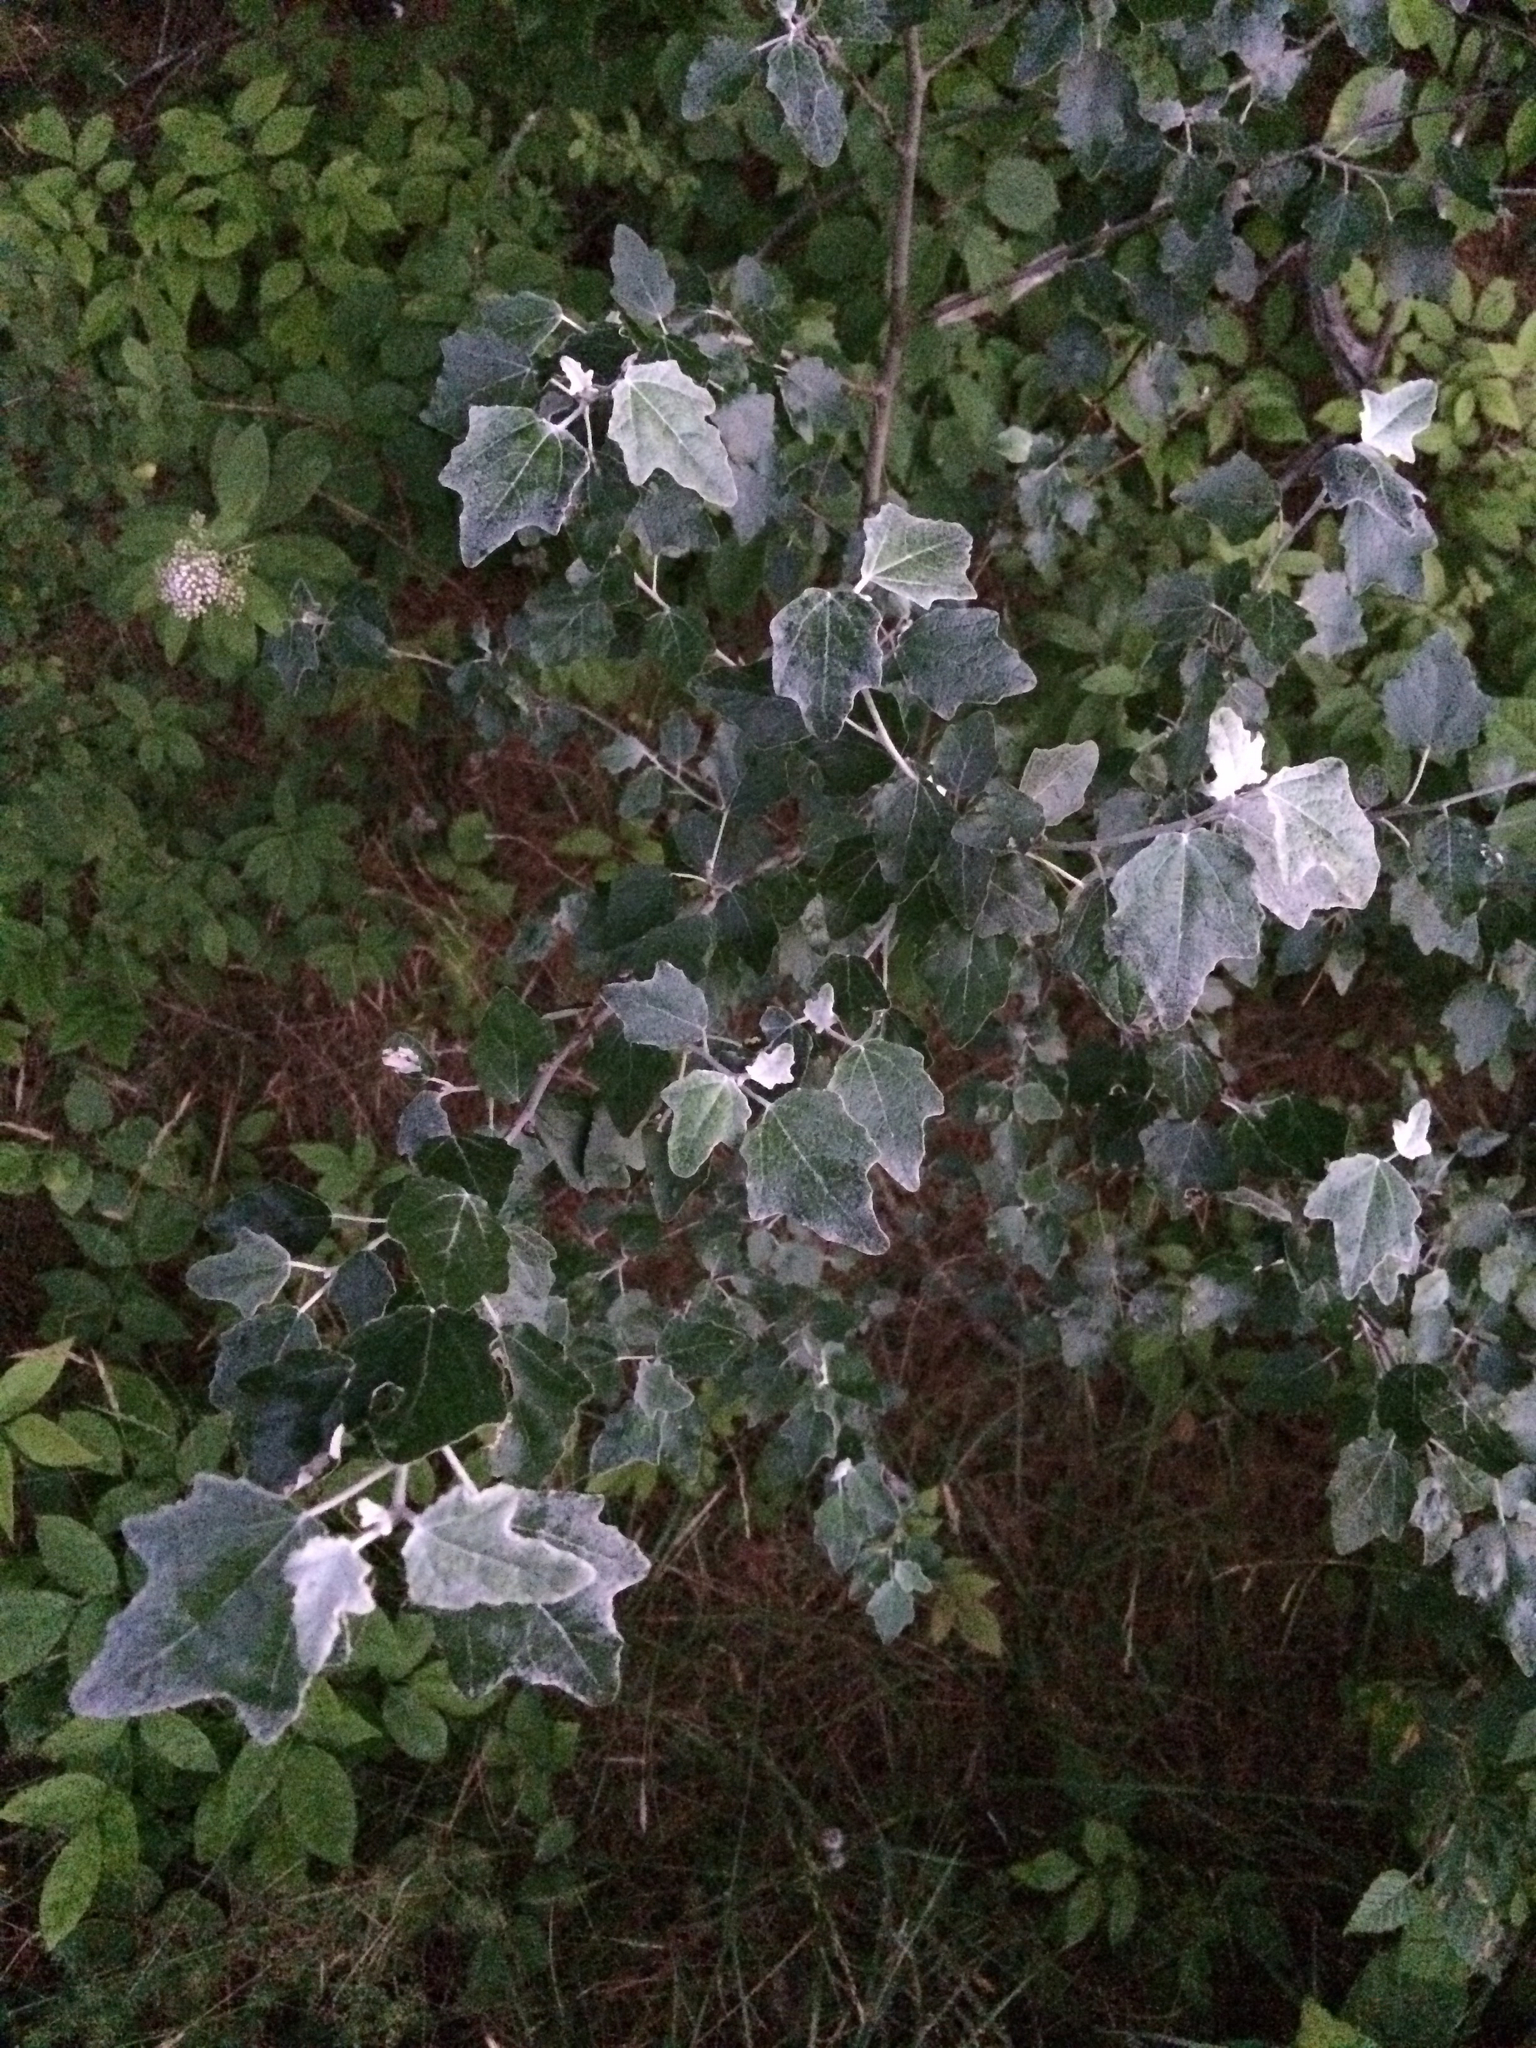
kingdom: Plantae
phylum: Tracheophyta
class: Magnoliopsida
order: Malpighiales
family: Salicaceae
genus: Populus
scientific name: Populus alba
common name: White poplar
